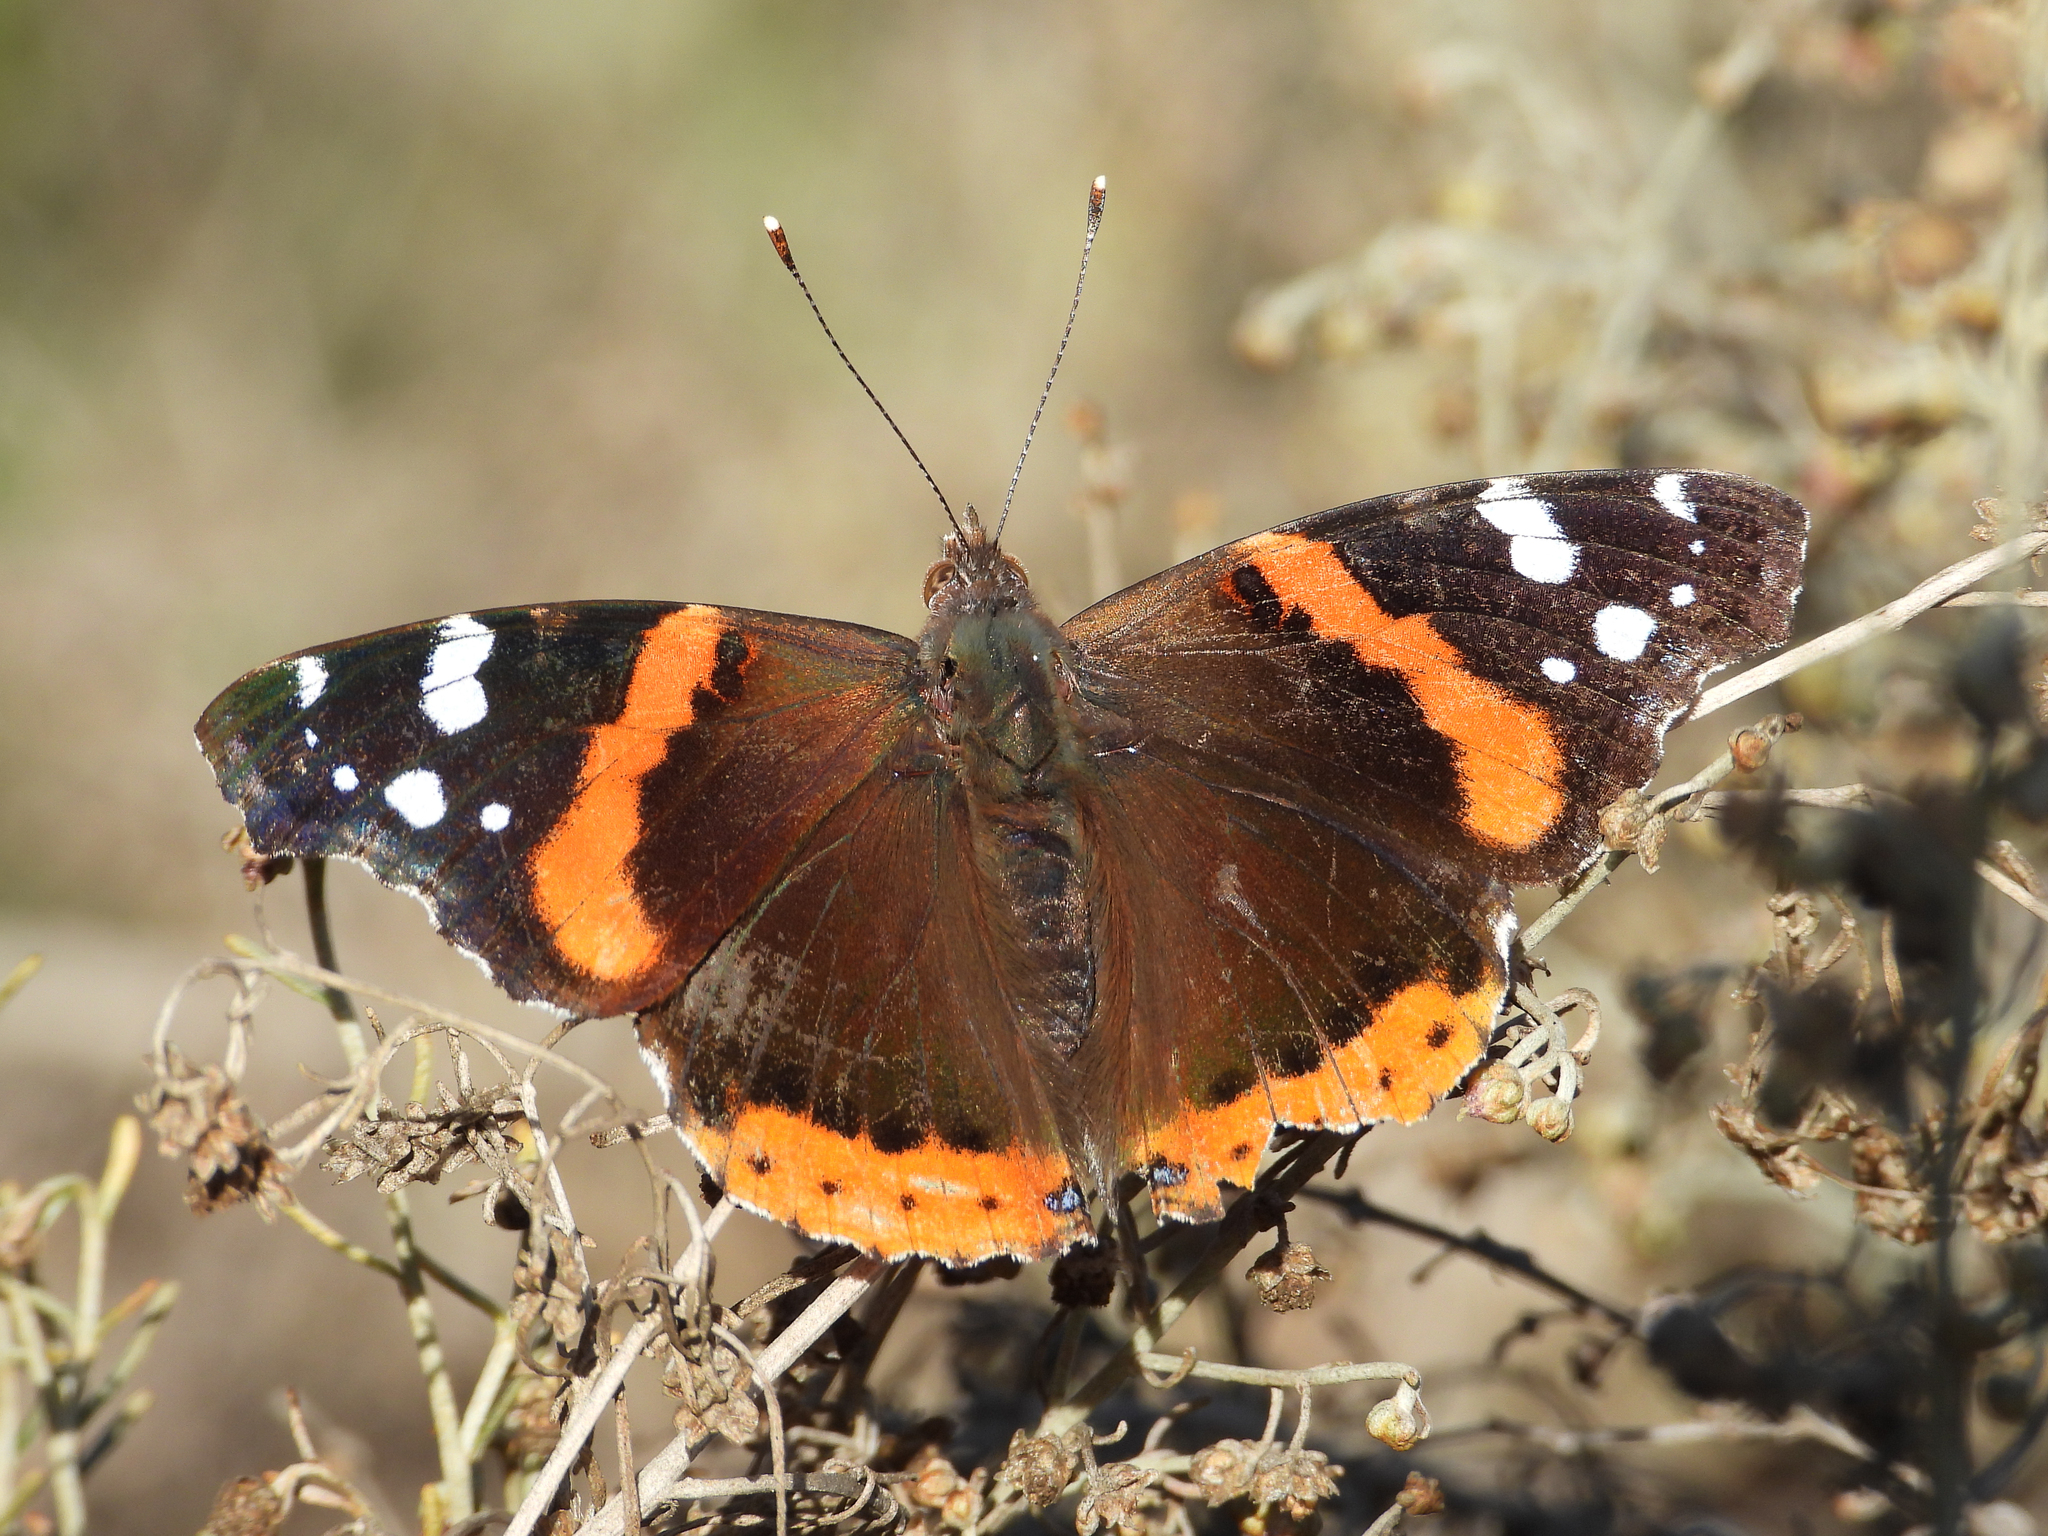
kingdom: Animalia
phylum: Arthropoda
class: Insecta
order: Lepidoptera
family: Nymphalidae
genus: Vanessa
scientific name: Vanessa atalanta
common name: Red admiral
